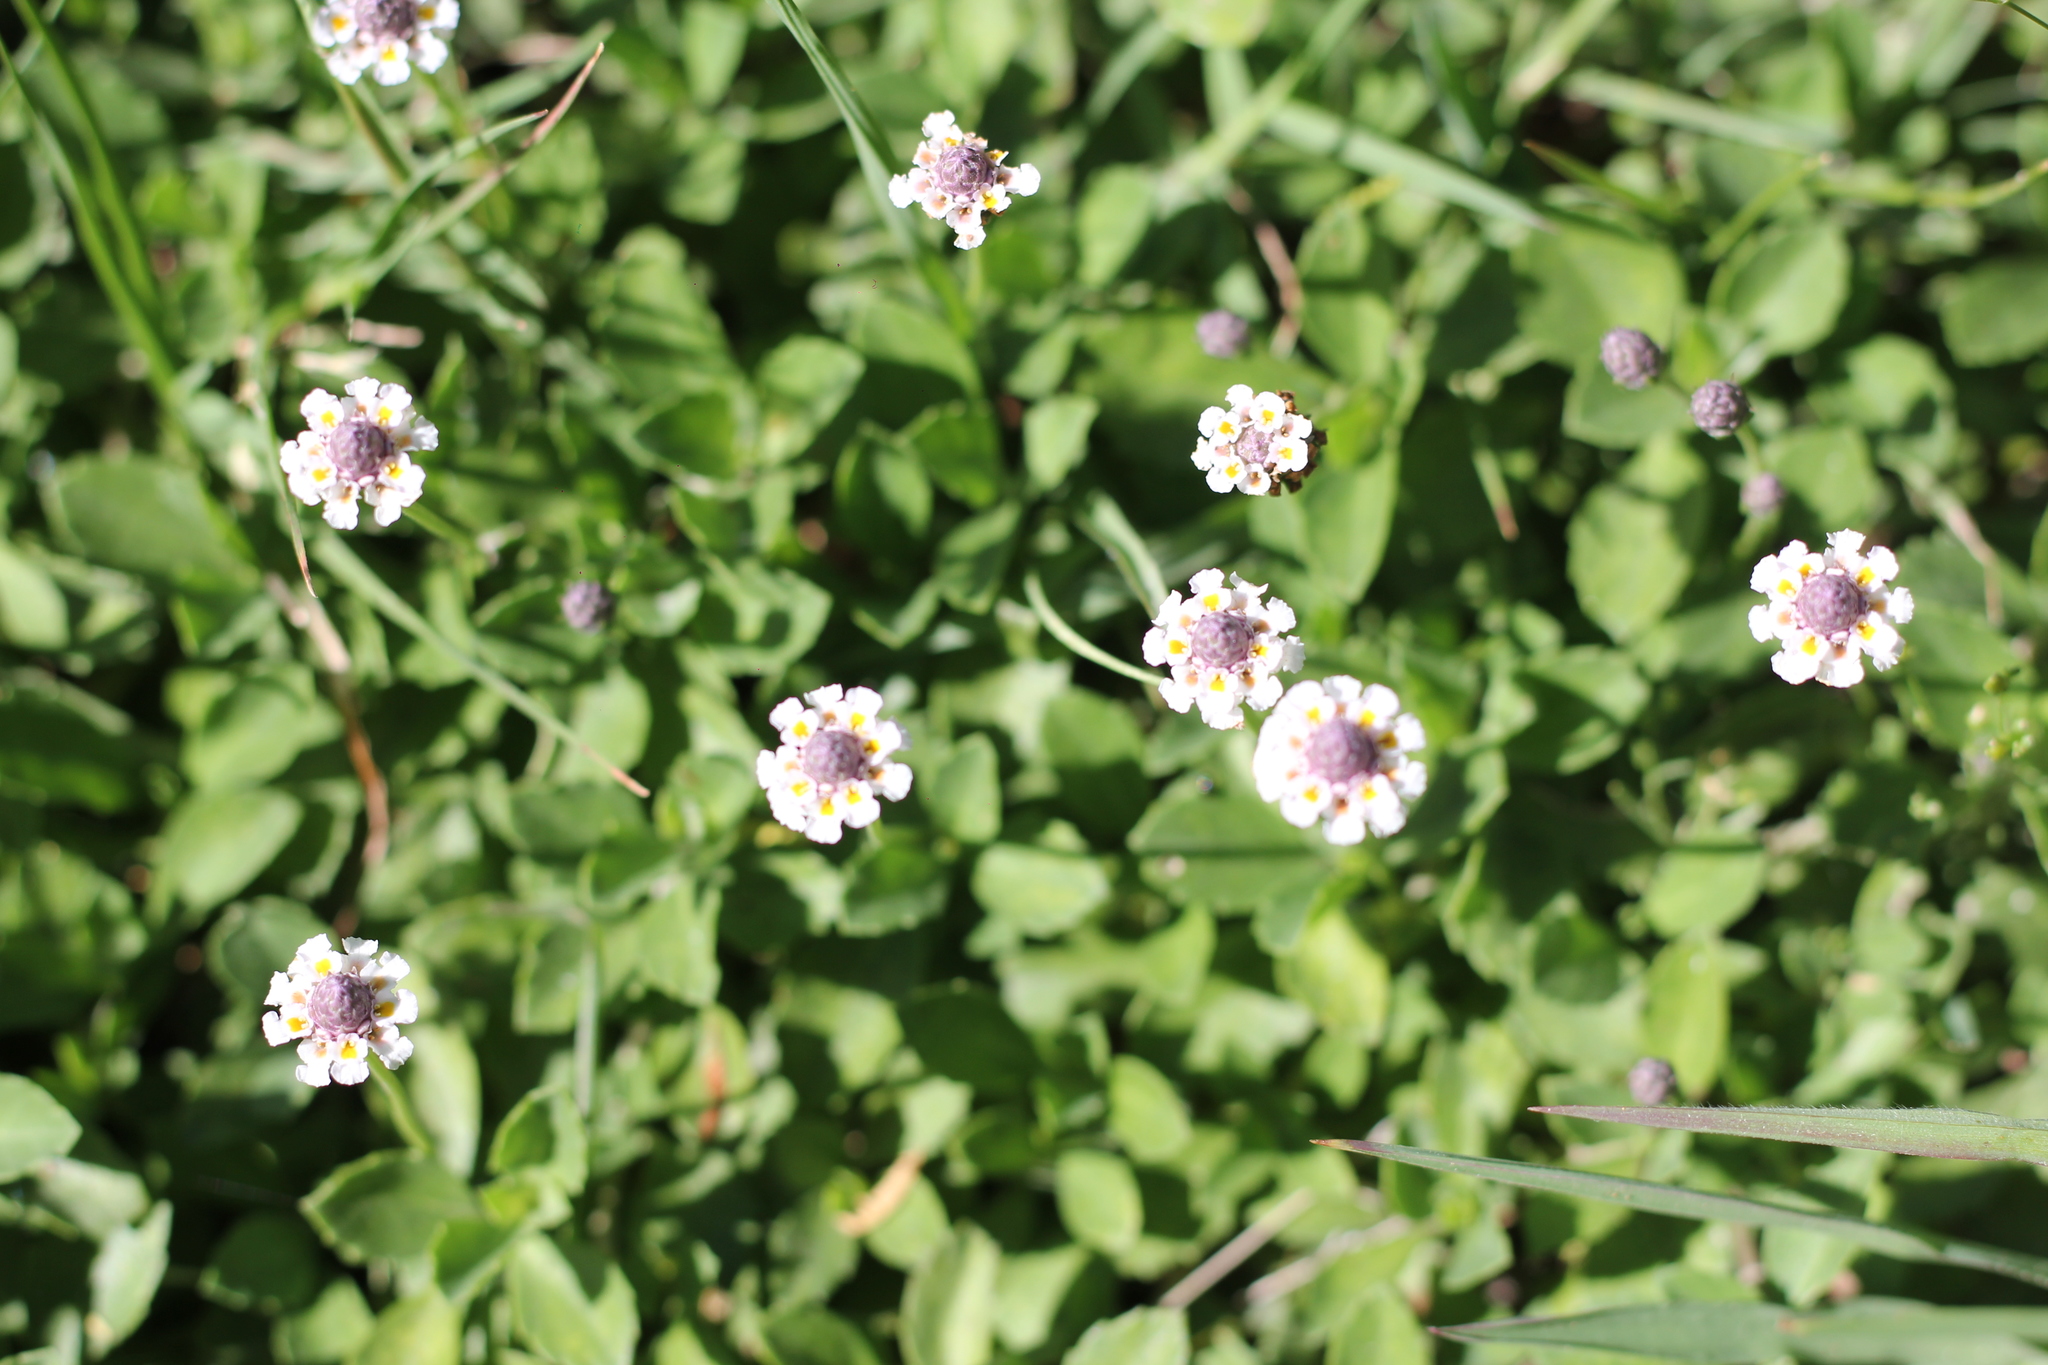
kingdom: Plantae
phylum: Tracheophyta
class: Magnoliopsida
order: Lamiales
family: Verbenaceae
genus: Phyla
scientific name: Phyla nodiflora
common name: Frogfruit
